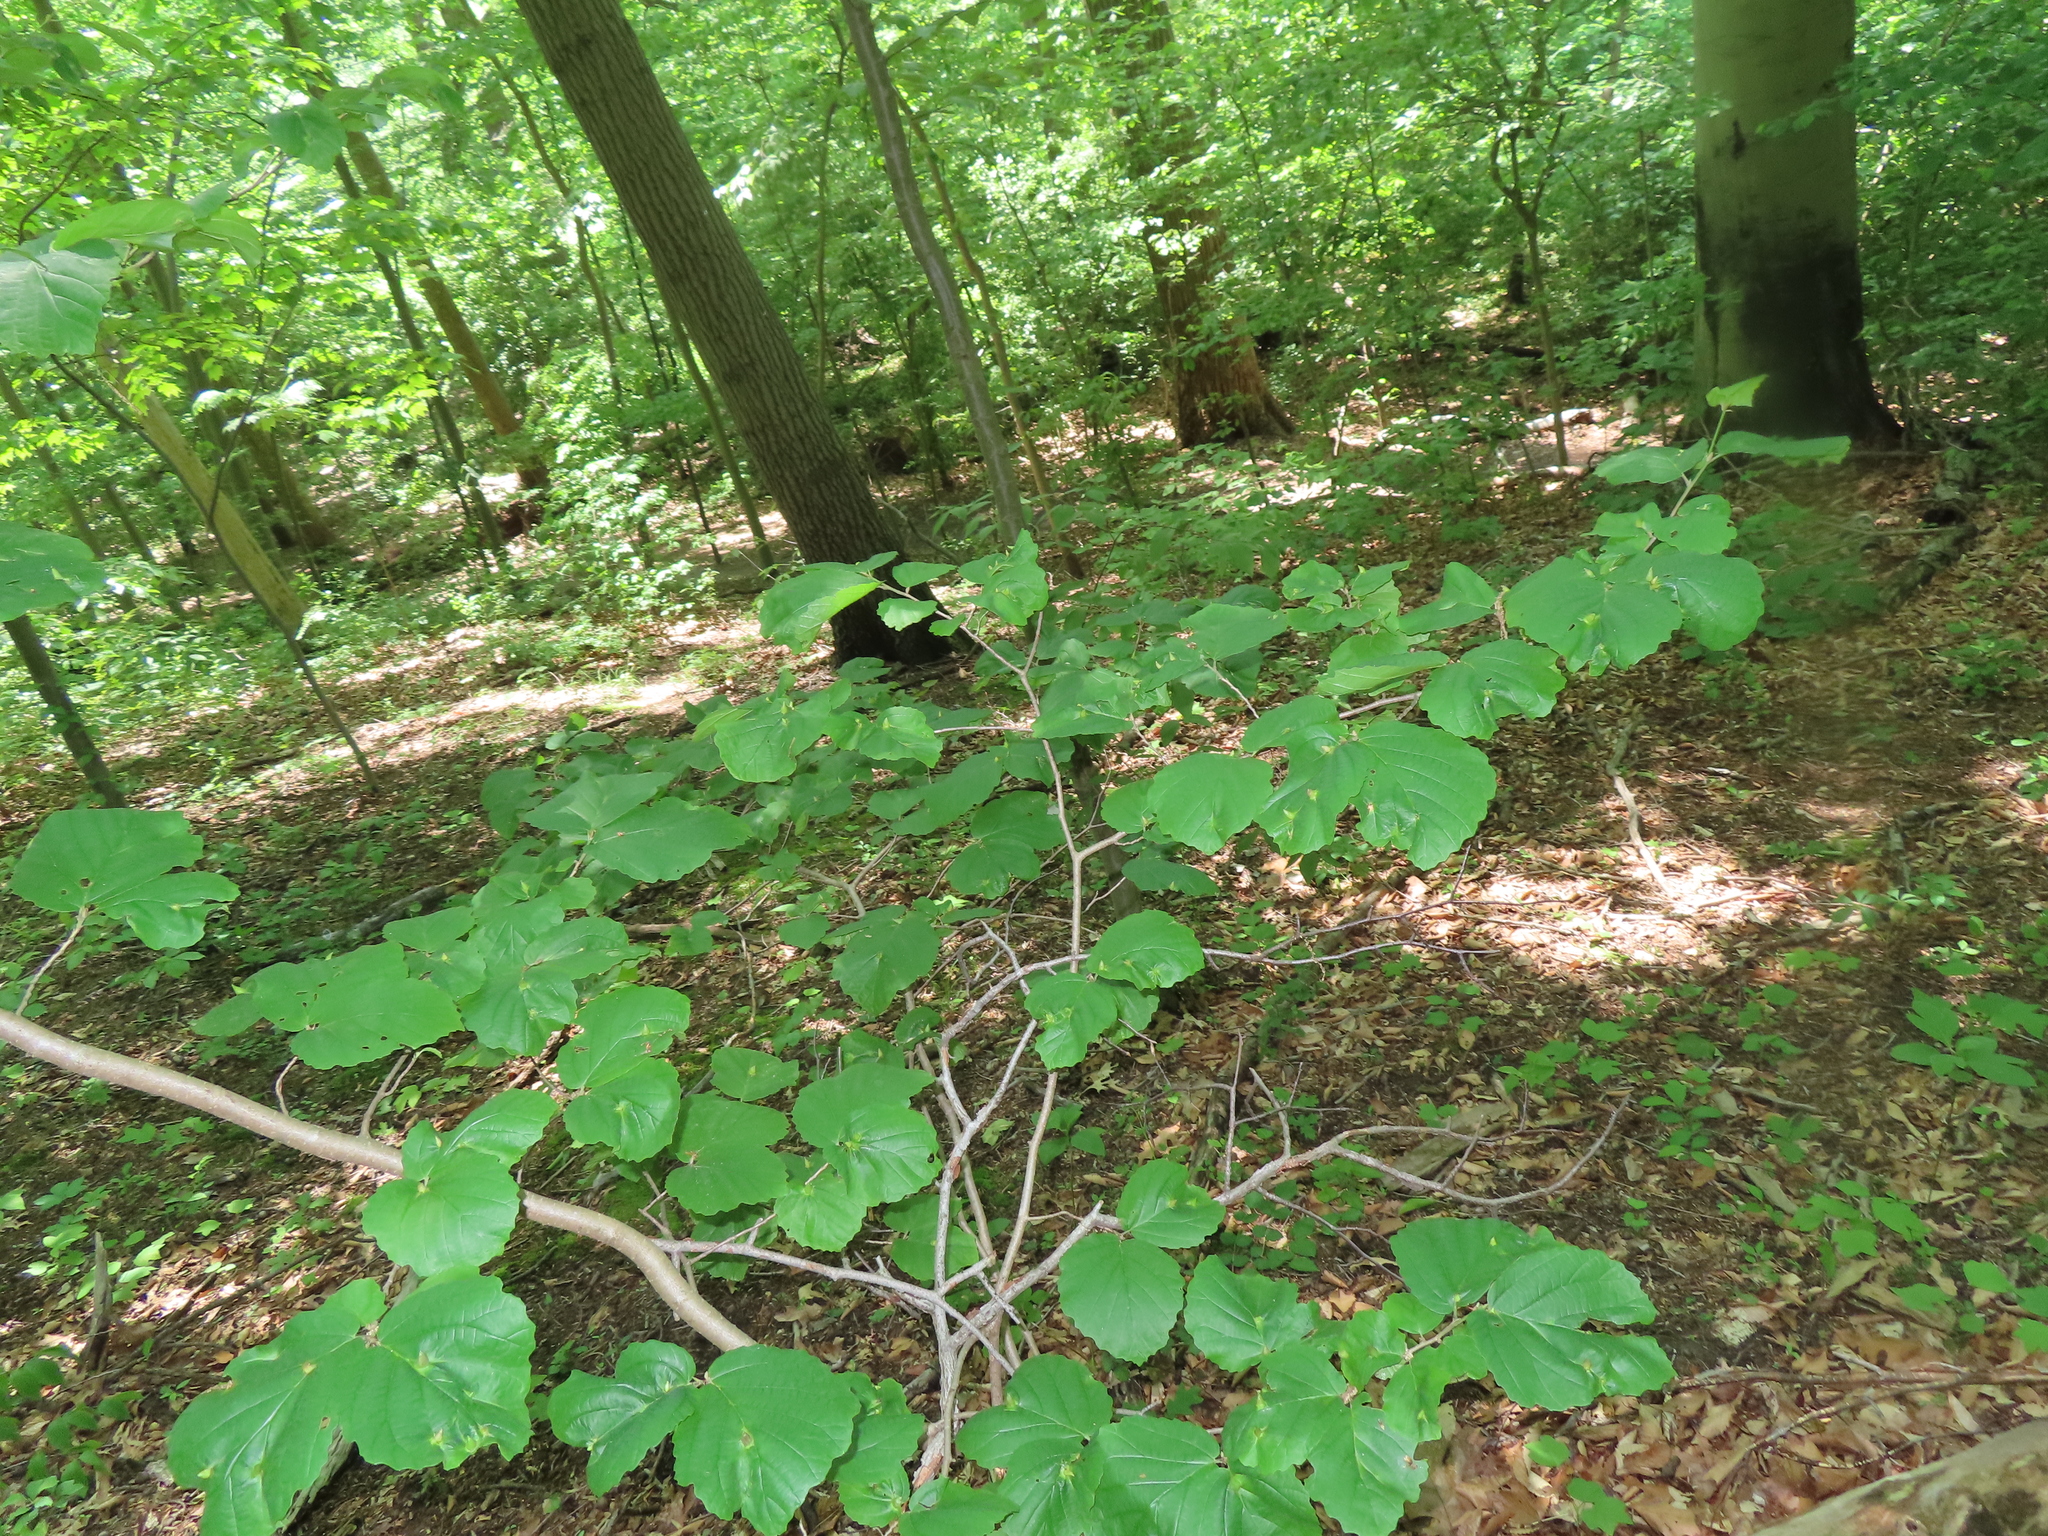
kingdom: Animalia
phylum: Arthropoda
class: Insecta
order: Hemiptera
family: Aphididae
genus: Hormaphis
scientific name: Hormaphis hamamelidis
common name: Witch-hazel cone gall aphid
